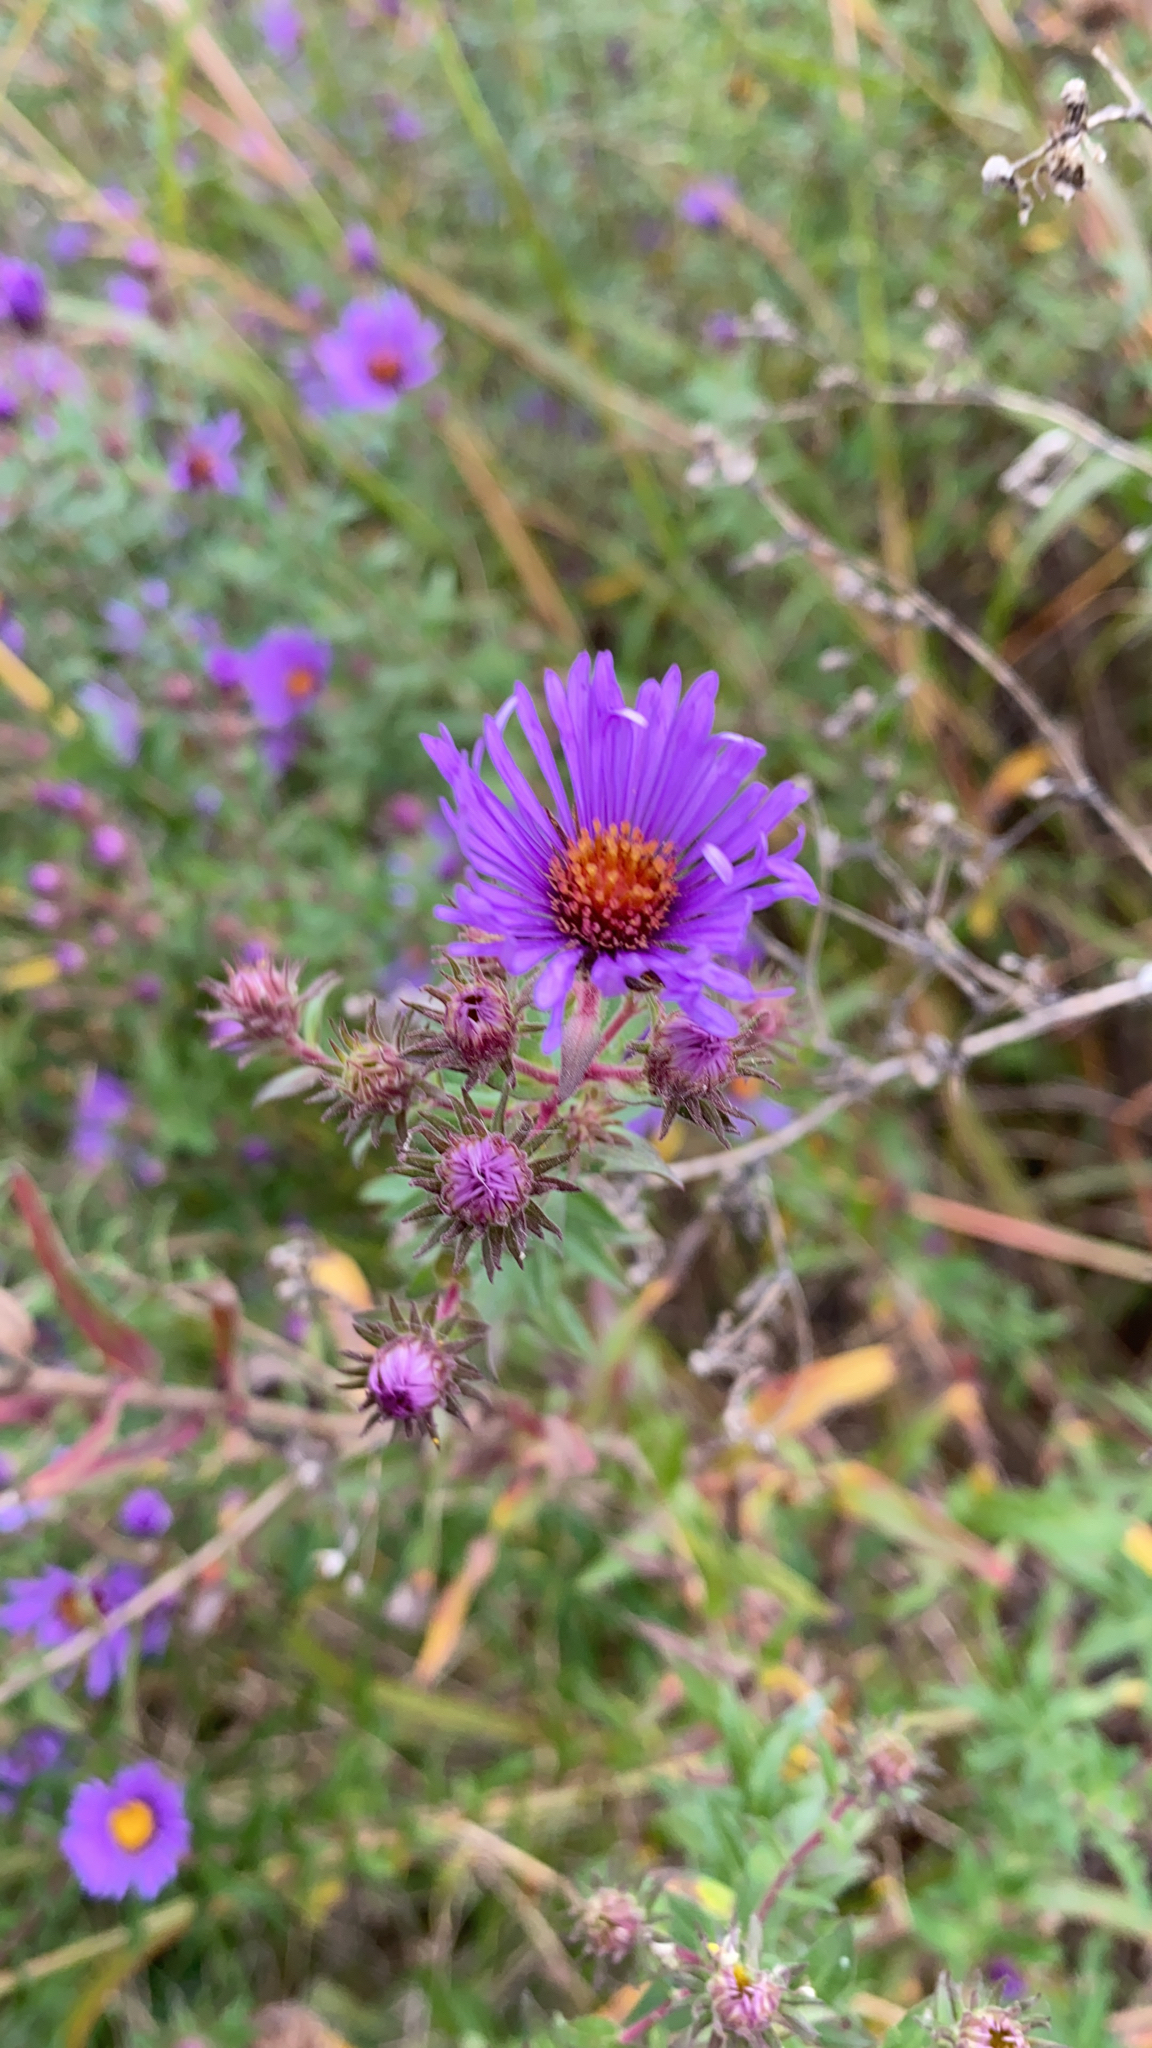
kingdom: Plantae
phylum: Tracheophyta
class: Magnoliopsida
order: Asterales
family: Asteraceae
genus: Symphyotrichum
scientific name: Symphyotrichum novae-angliae
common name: Michaelmas daisy
